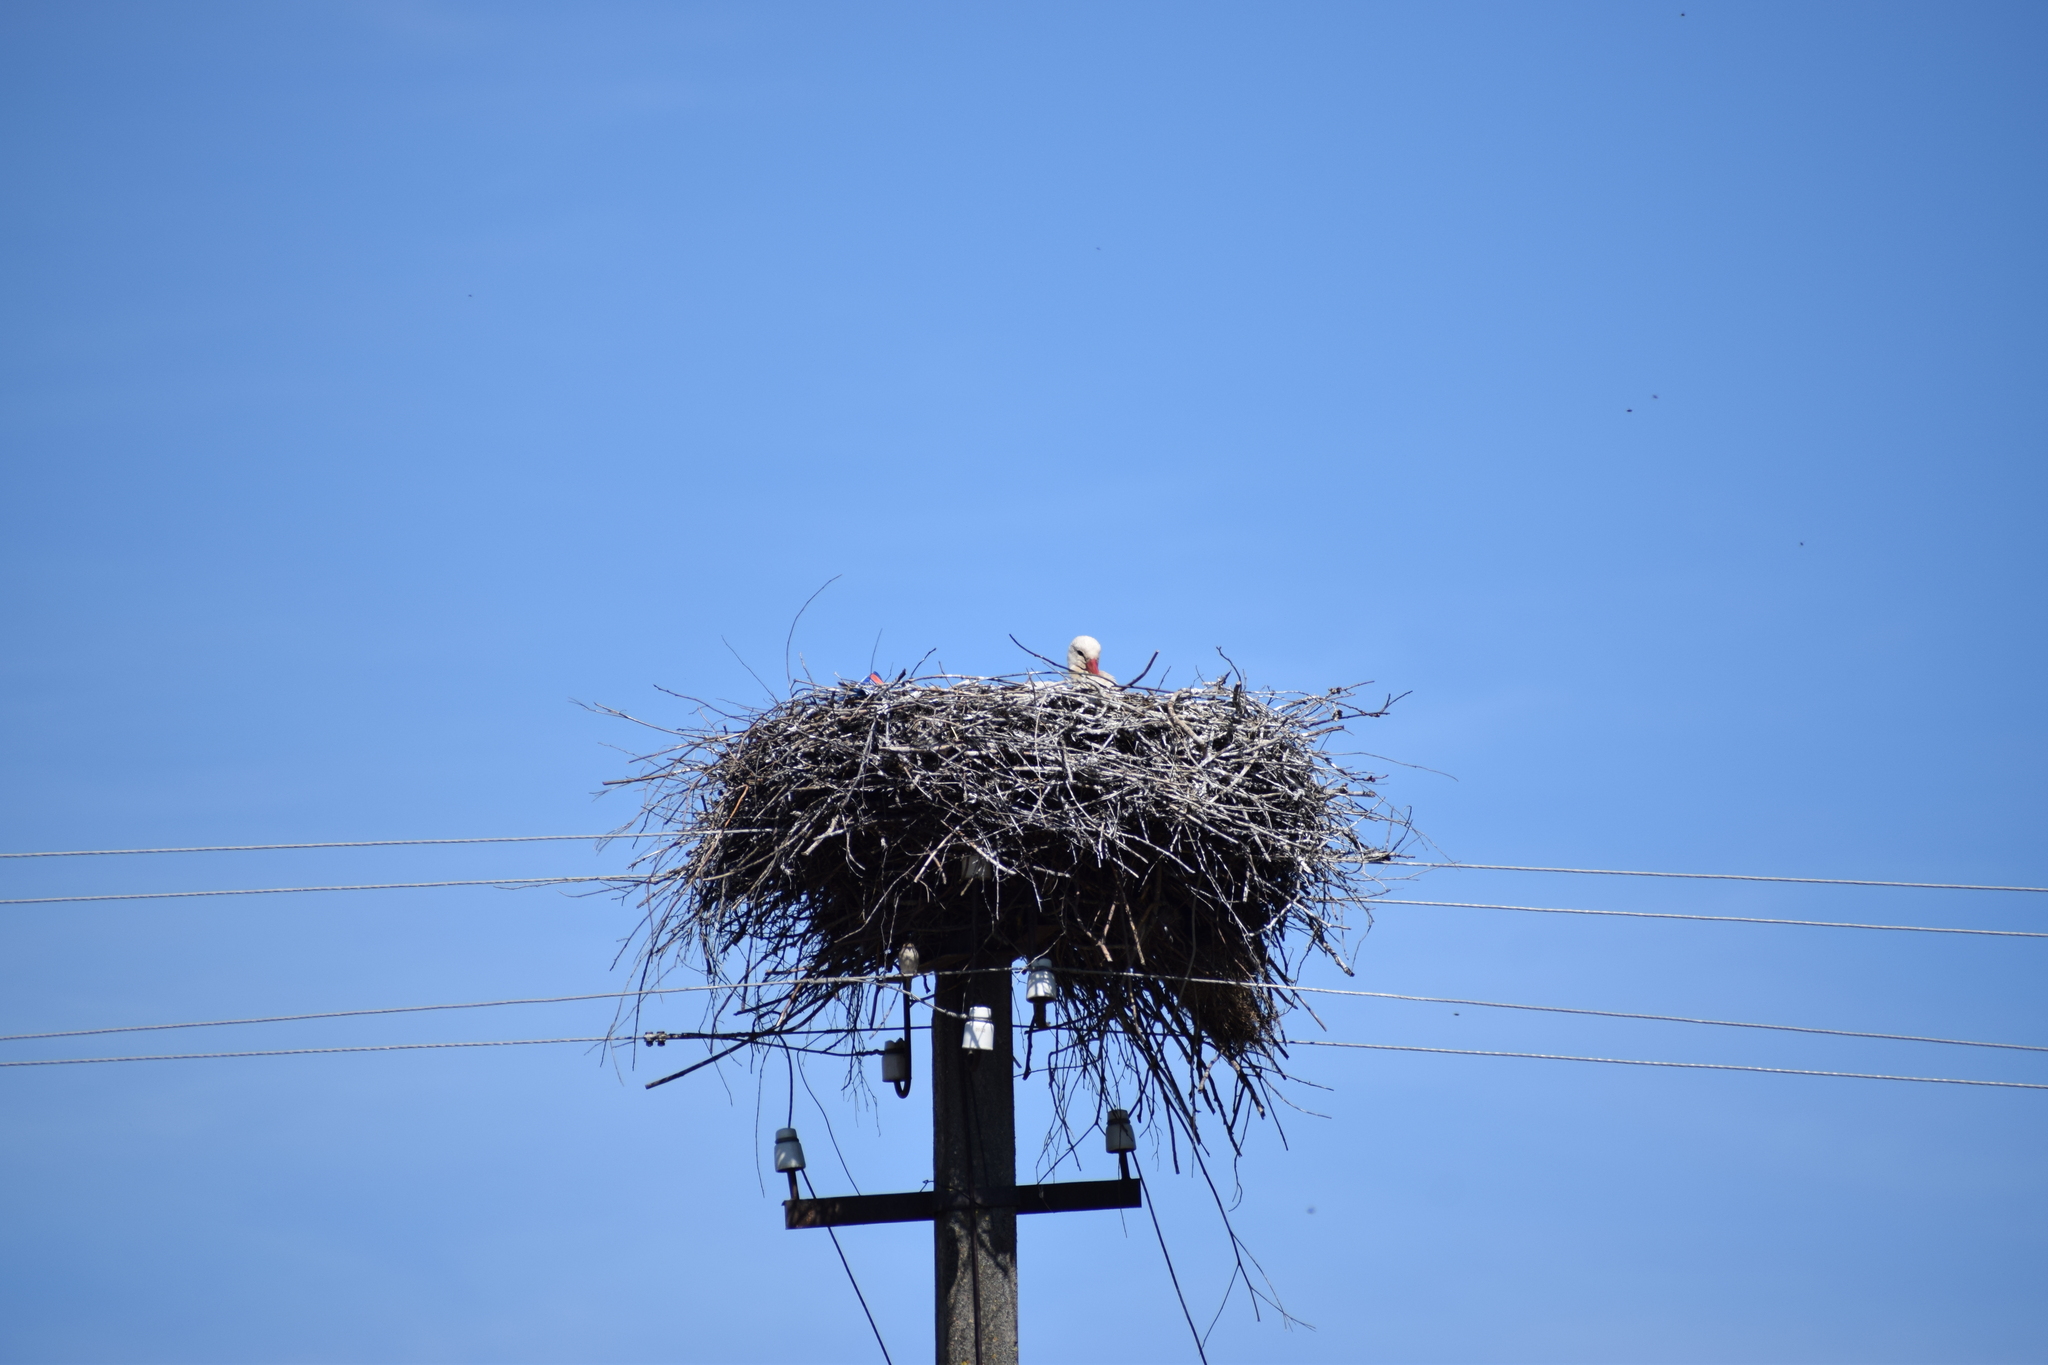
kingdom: Animalia
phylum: Chordata
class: Aves
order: Ciconiiformes
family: Ciconiidae
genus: Ciconia
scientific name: Ciconia ciconia
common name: White stork
